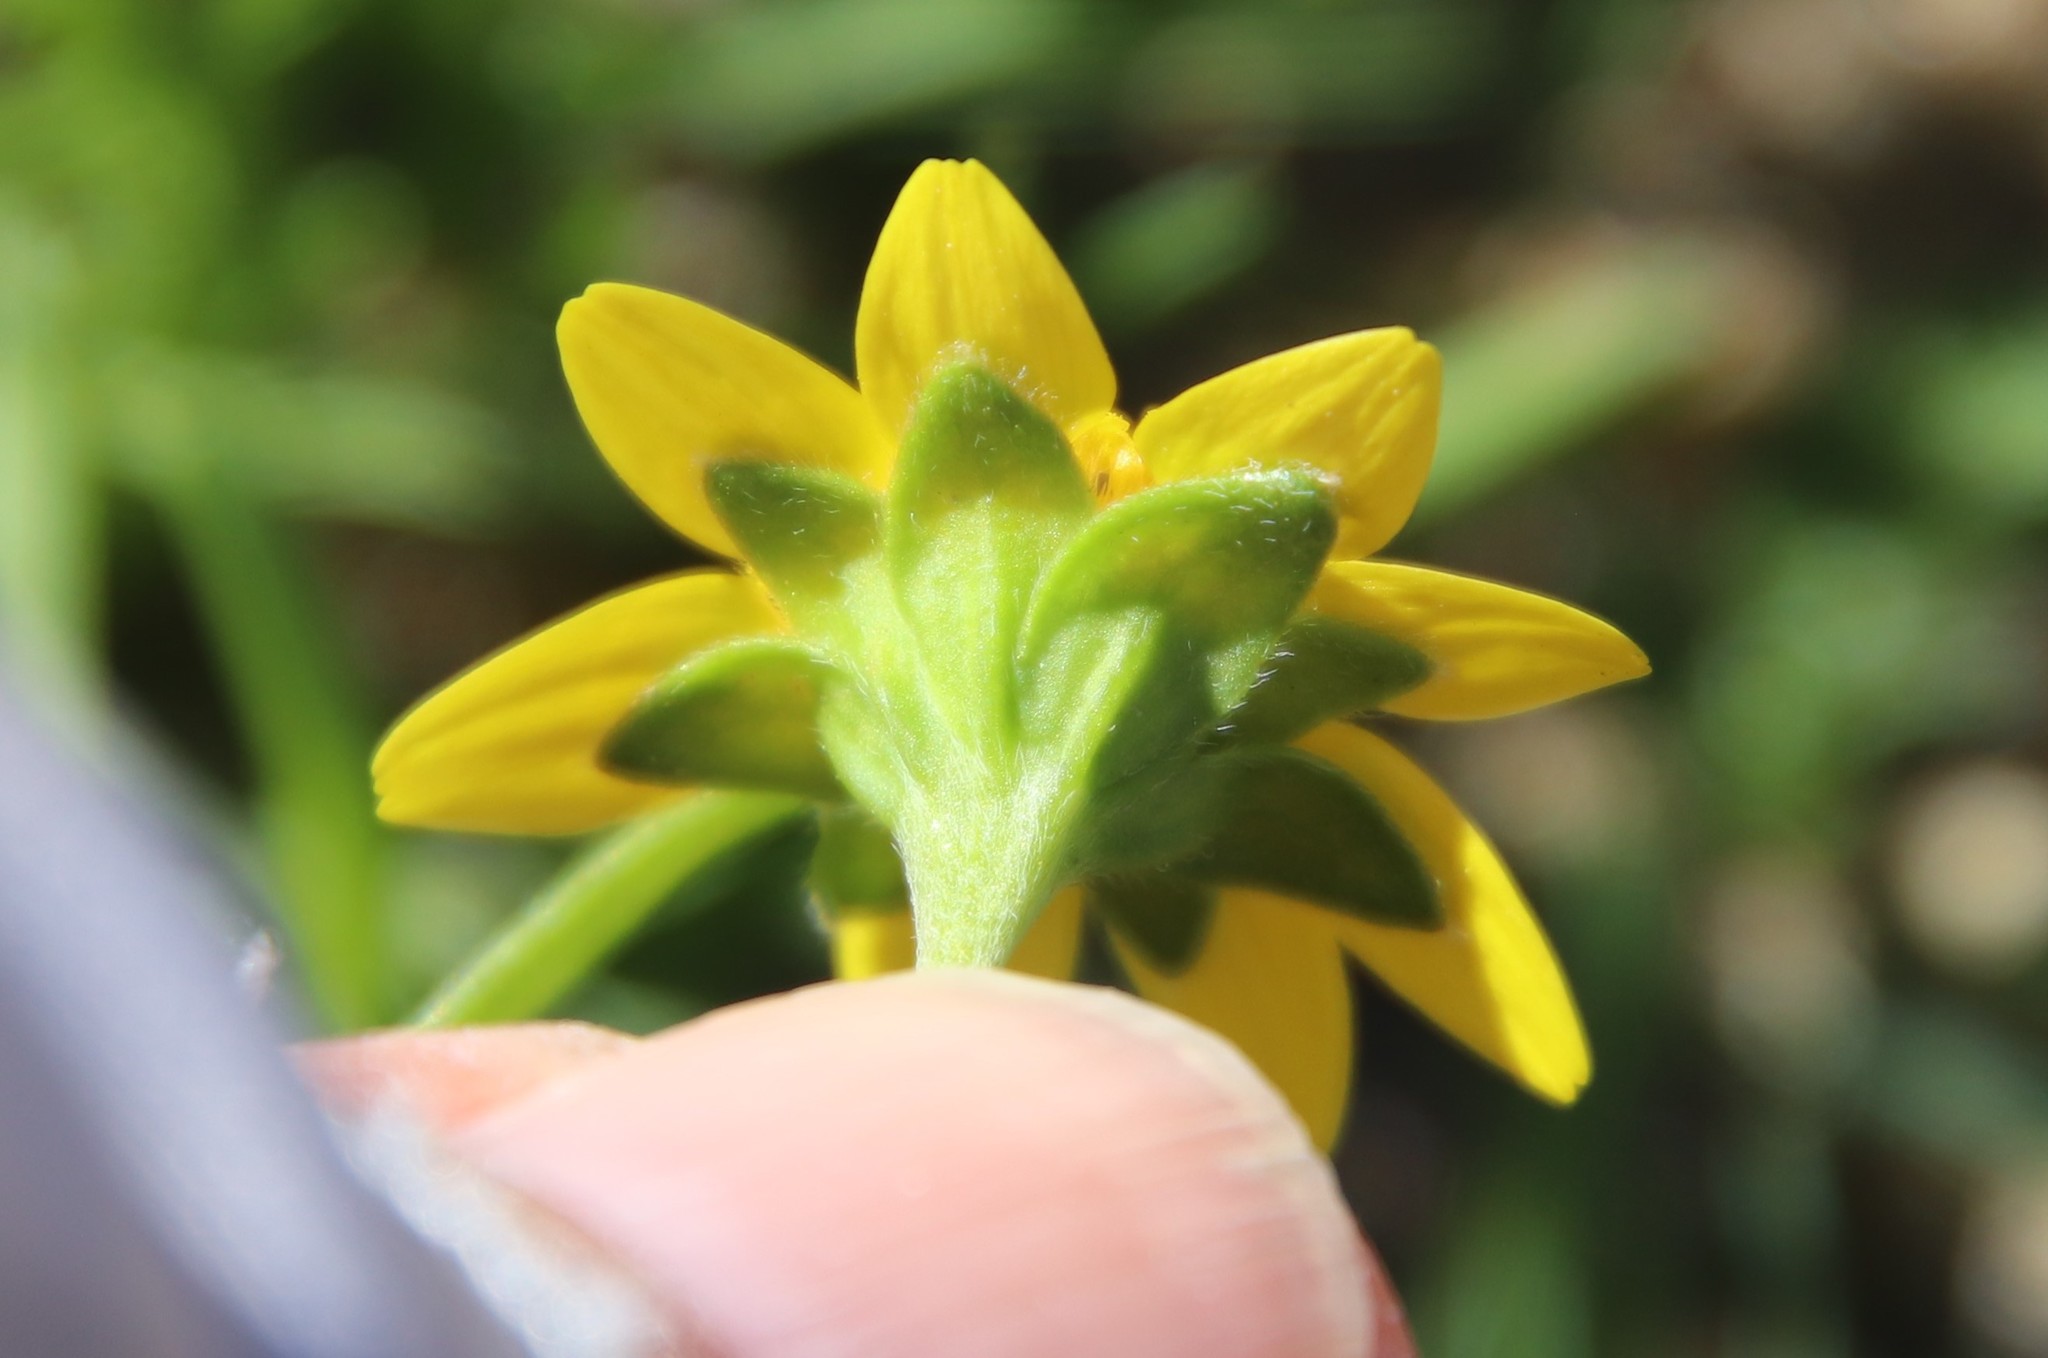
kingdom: Plantae
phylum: Tracheophyta
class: Magnoliopsida
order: Asterales
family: Asteraceae
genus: Lasthenia
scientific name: Lasthenia gracilis
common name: Common goldfields
